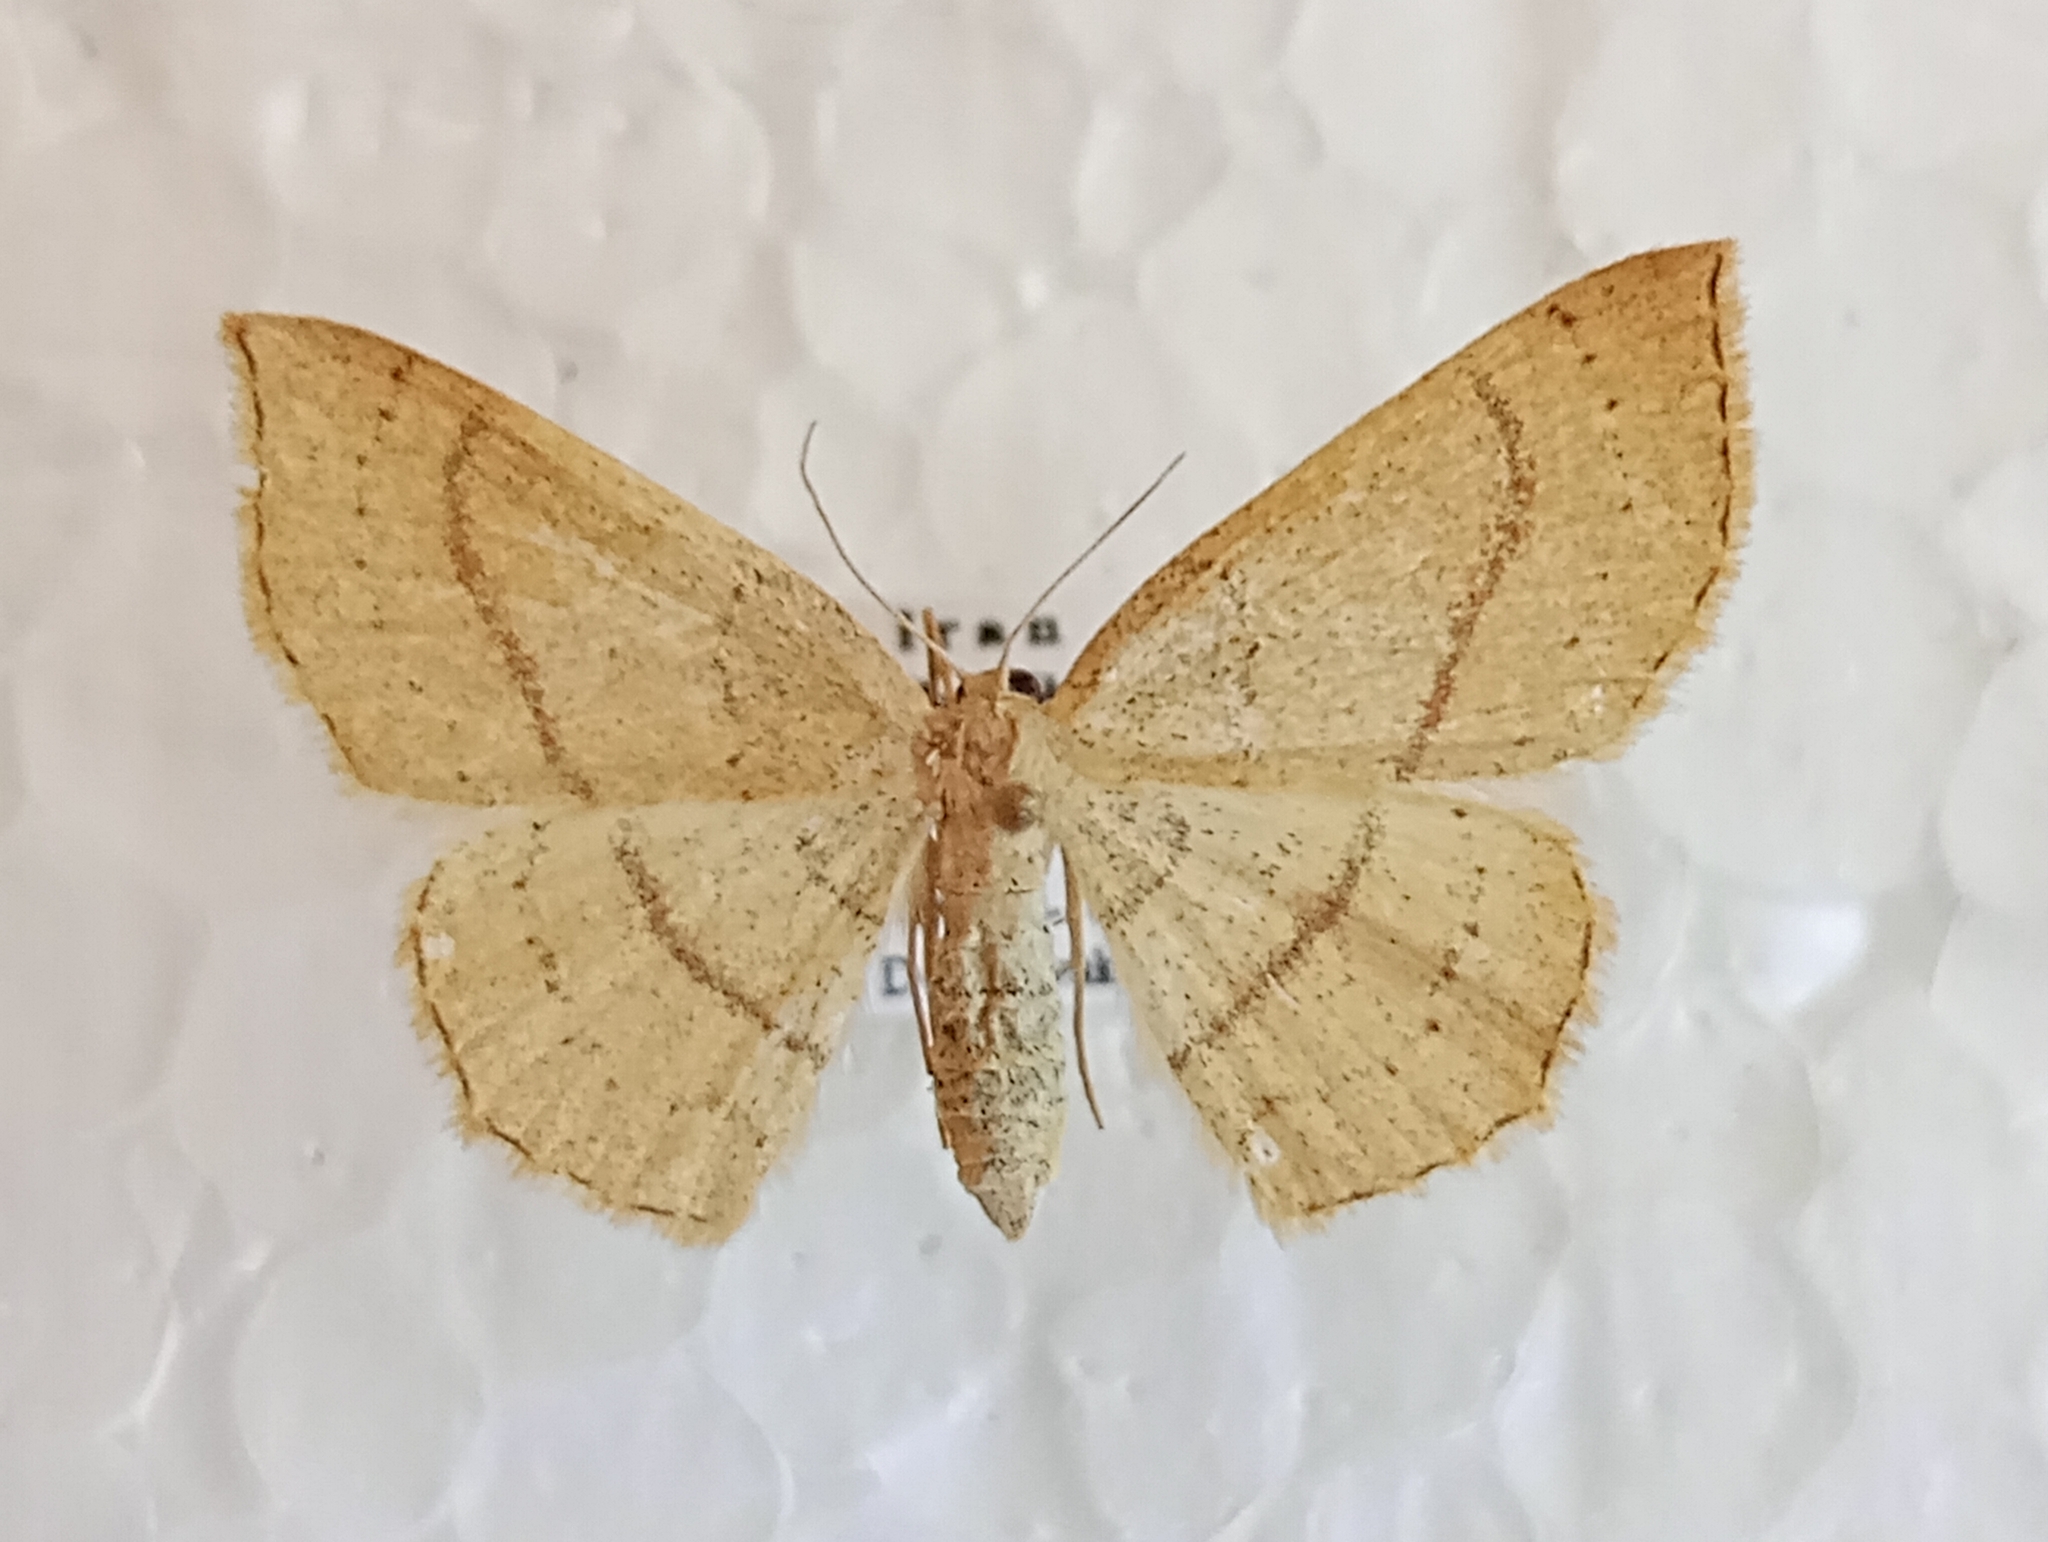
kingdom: Animalia
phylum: Arthropoda
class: Insecta
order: Lepidoptera
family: Geometridae
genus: Cyclophora
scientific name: Cyclophora linearia
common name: Clay triple-lines
